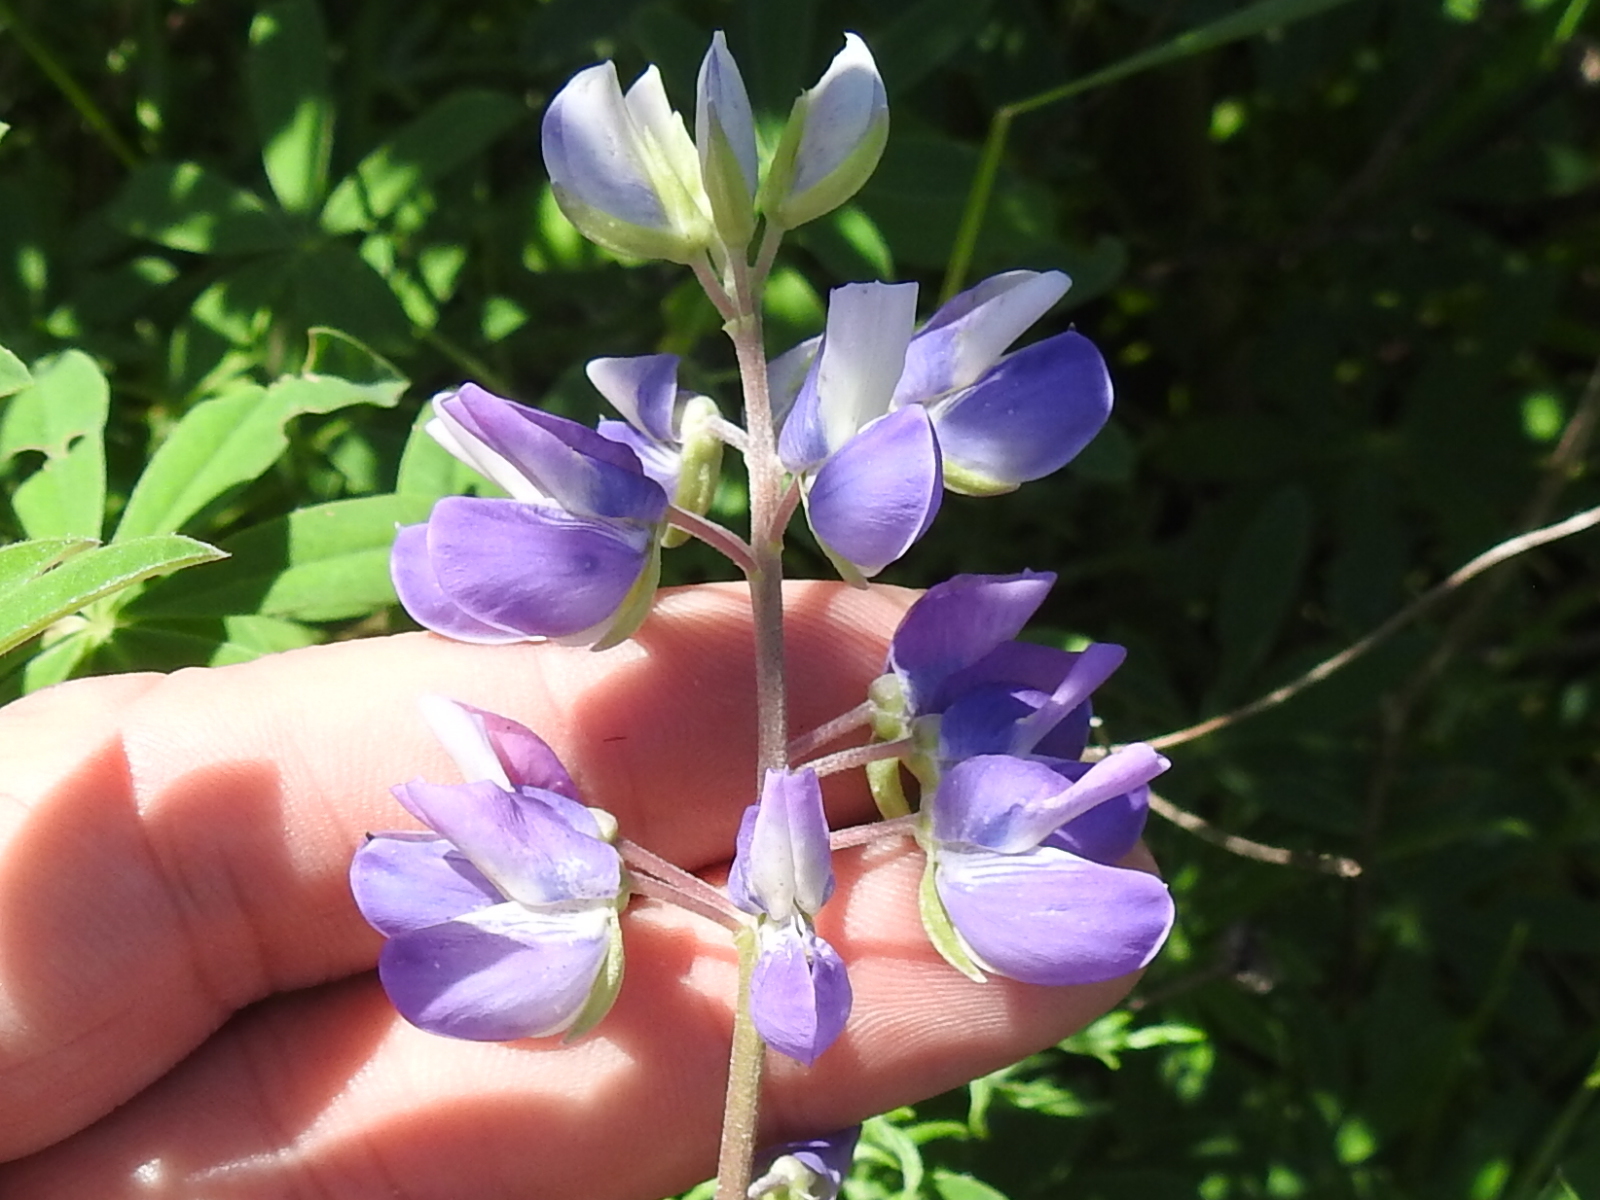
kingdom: Plantae
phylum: Tracheophyta
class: Magnoliopsida
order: Fabales
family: Fabaceae
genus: Lupinus
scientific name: Lupinus rivularis
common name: Riverbank lupine
